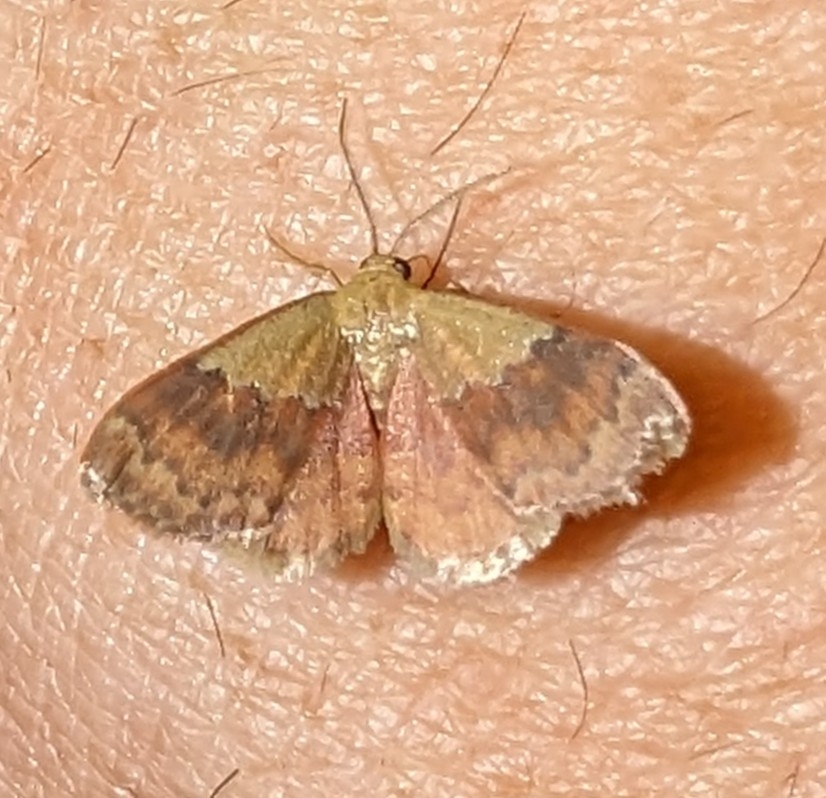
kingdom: Animalia
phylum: Arthropoda
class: Insecta
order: Lepidoptera
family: Geometridae
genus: Leptostales
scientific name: Leptostales ferruminaria
